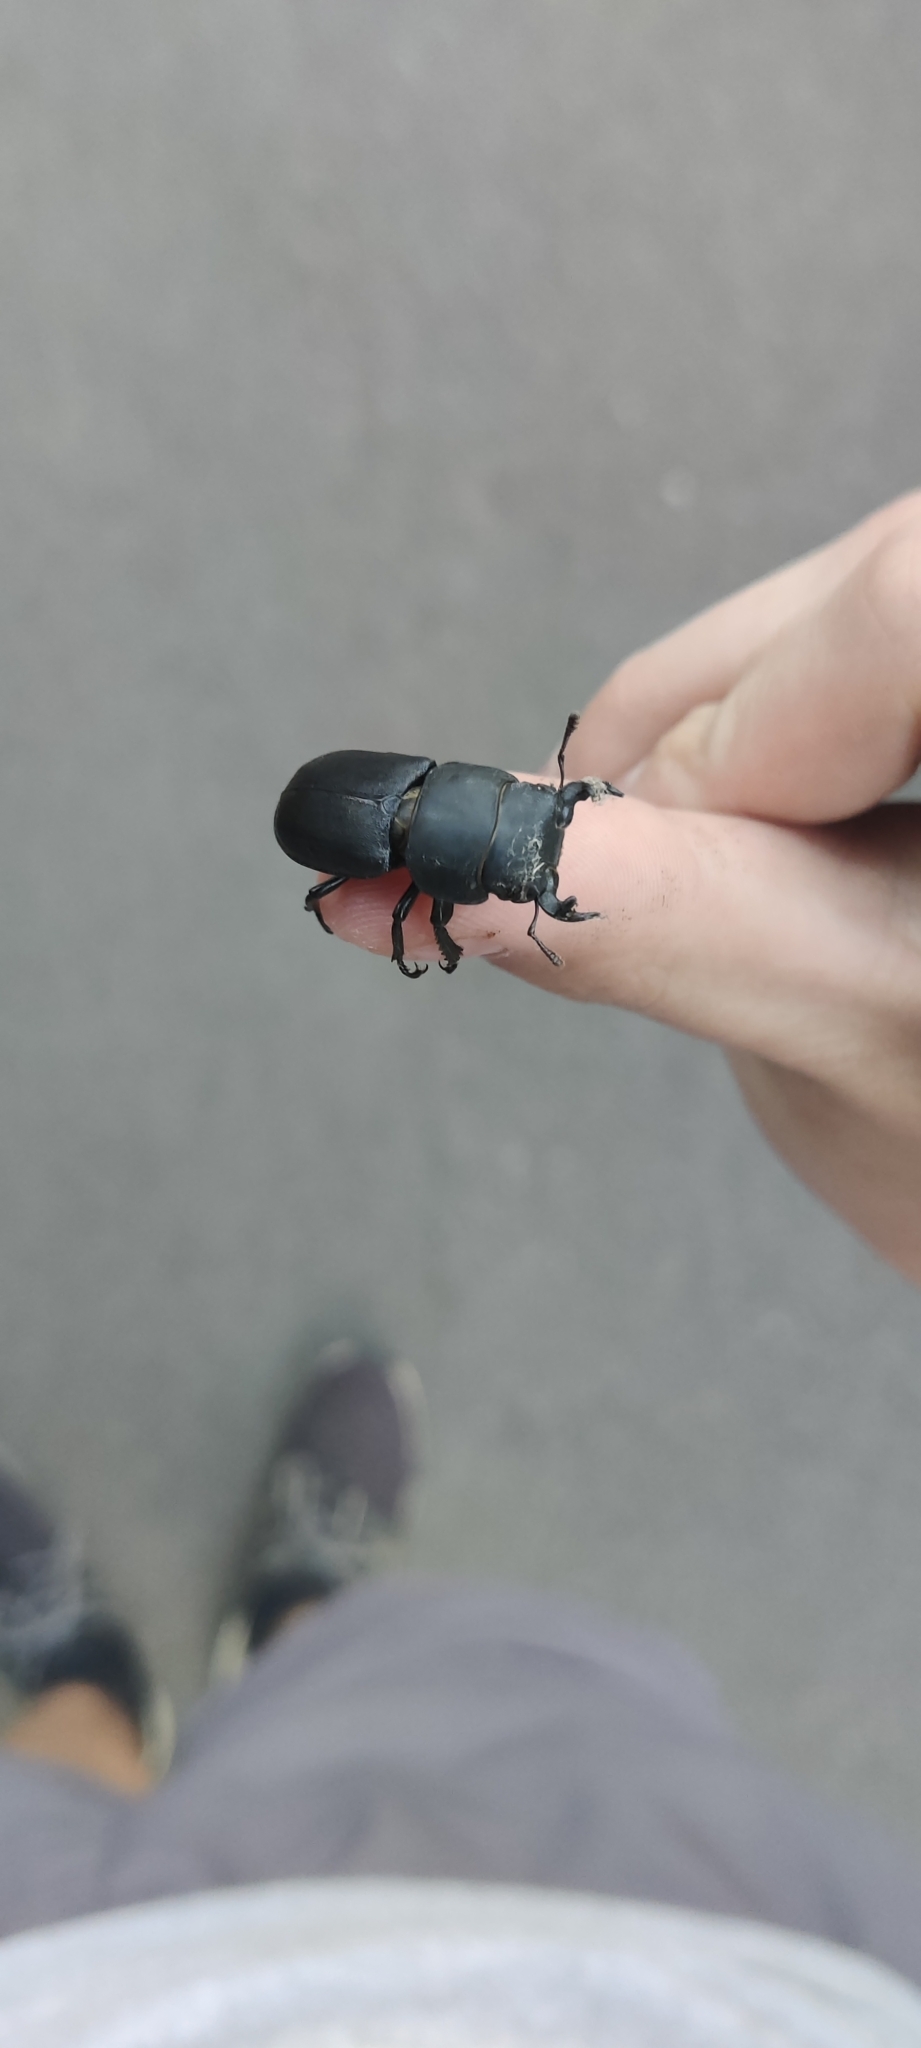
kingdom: Animalia
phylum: Arthropoda
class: Insecta
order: Coleoptera
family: Lucanidae
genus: Dorcus
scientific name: Dorcus parallelipipedus
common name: Lesser stag beetle
